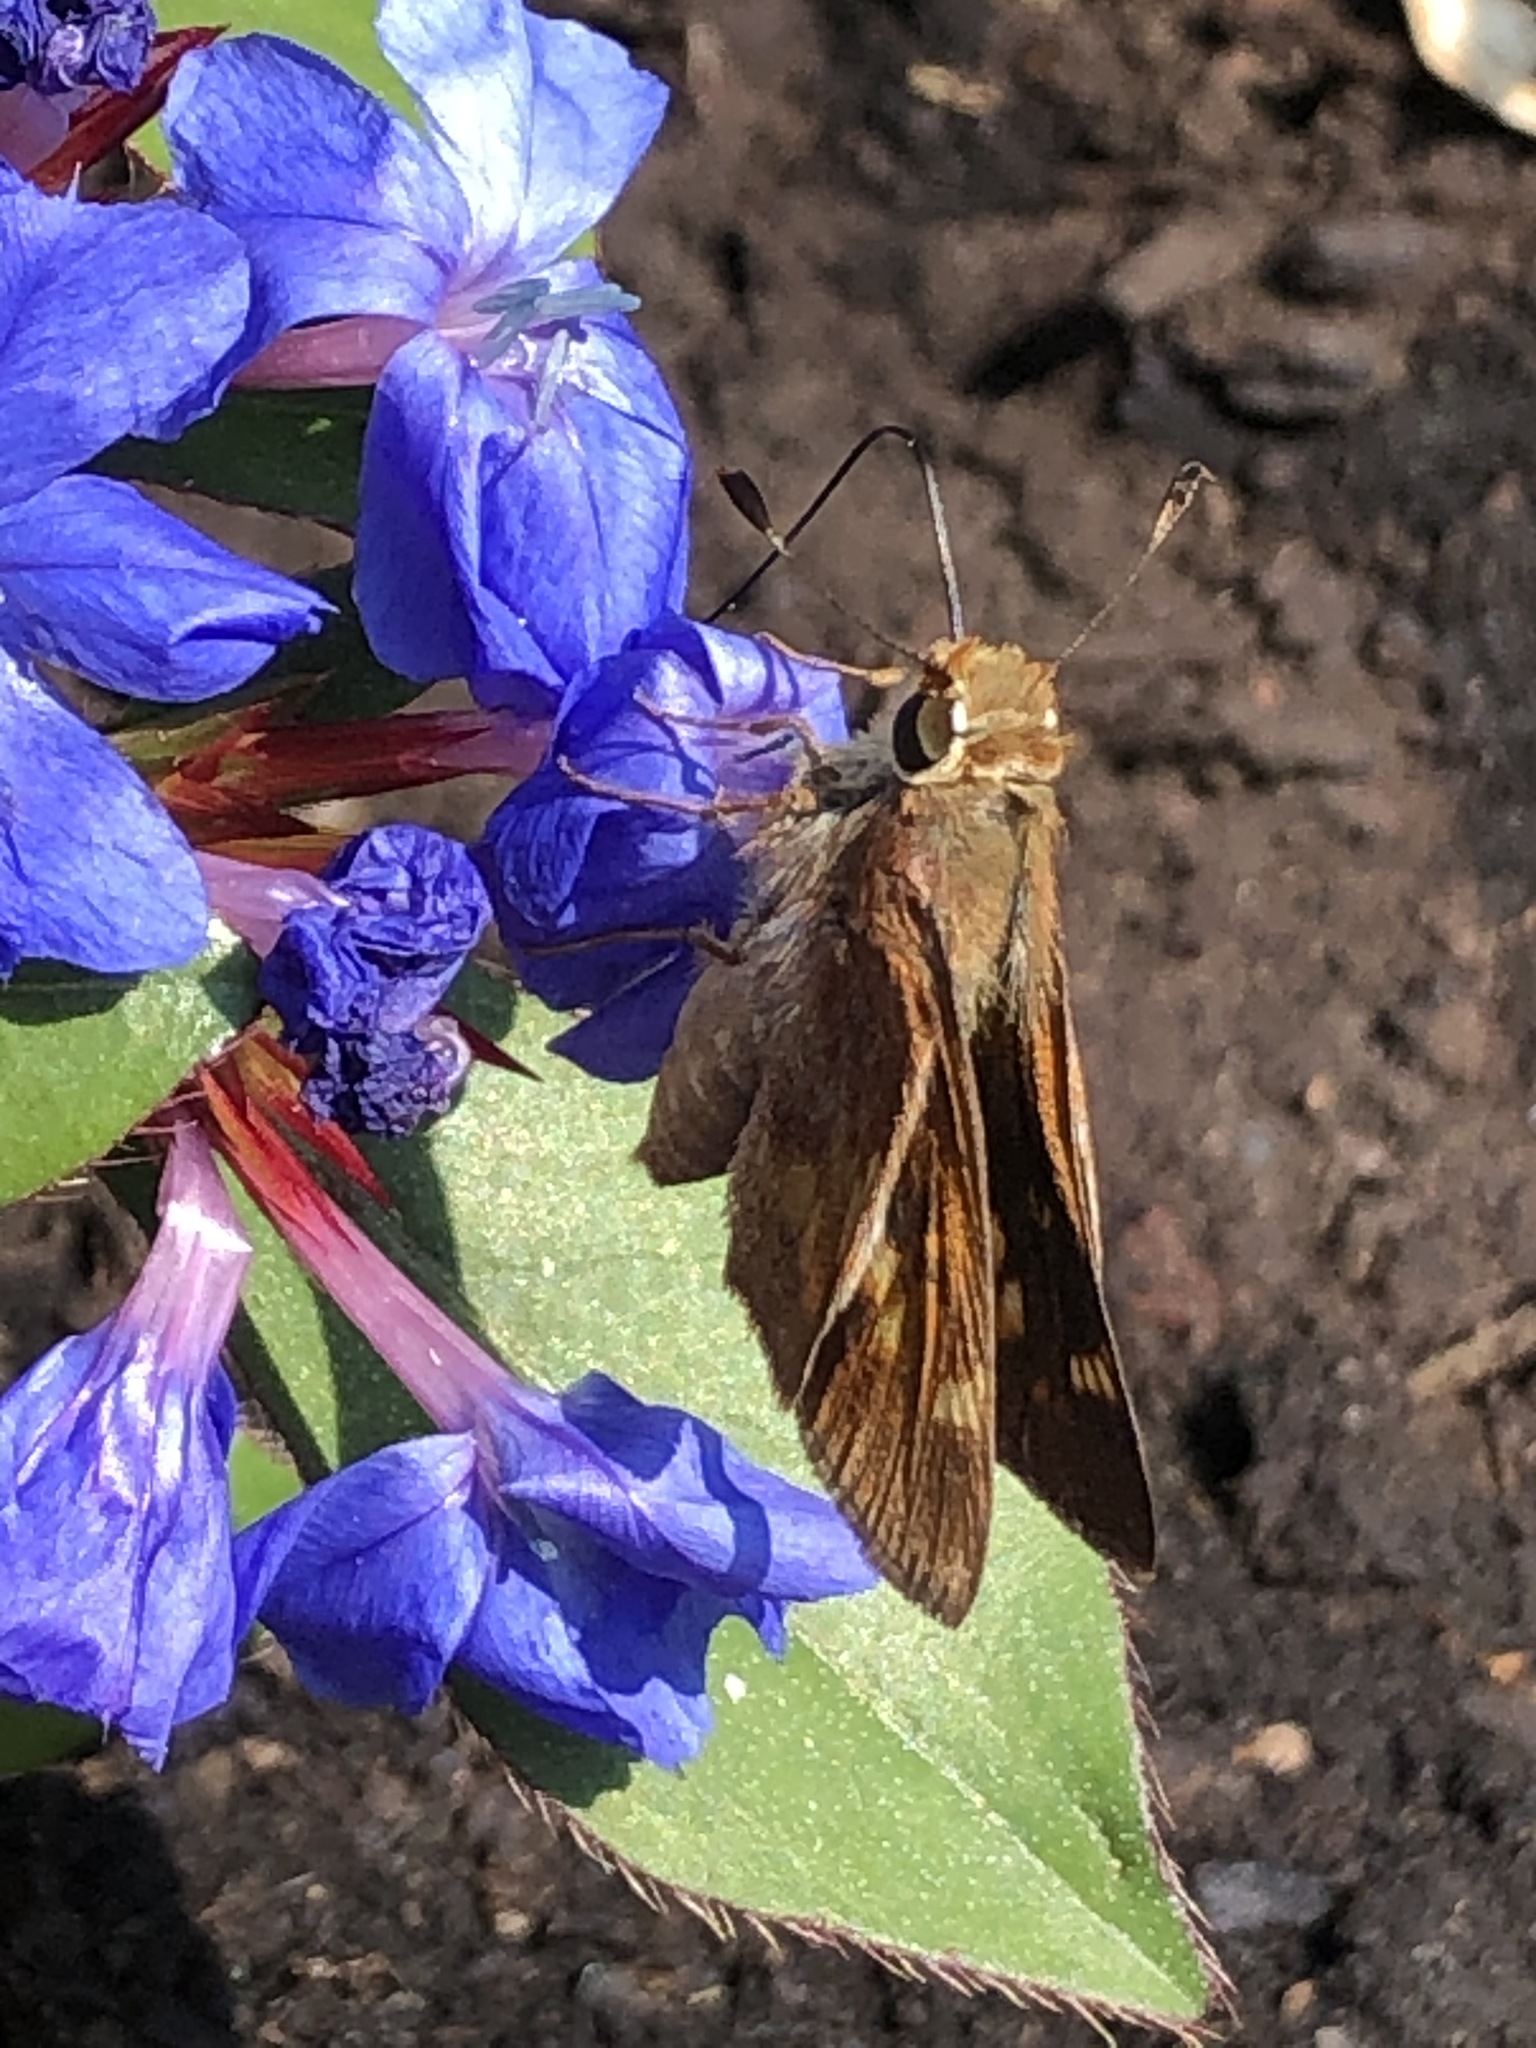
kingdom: Animalia
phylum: Arthropoda
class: Insecta
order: Lepidoptera
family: Hesperiidae
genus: Lon
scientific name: Lon melane
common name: Umber skipper
